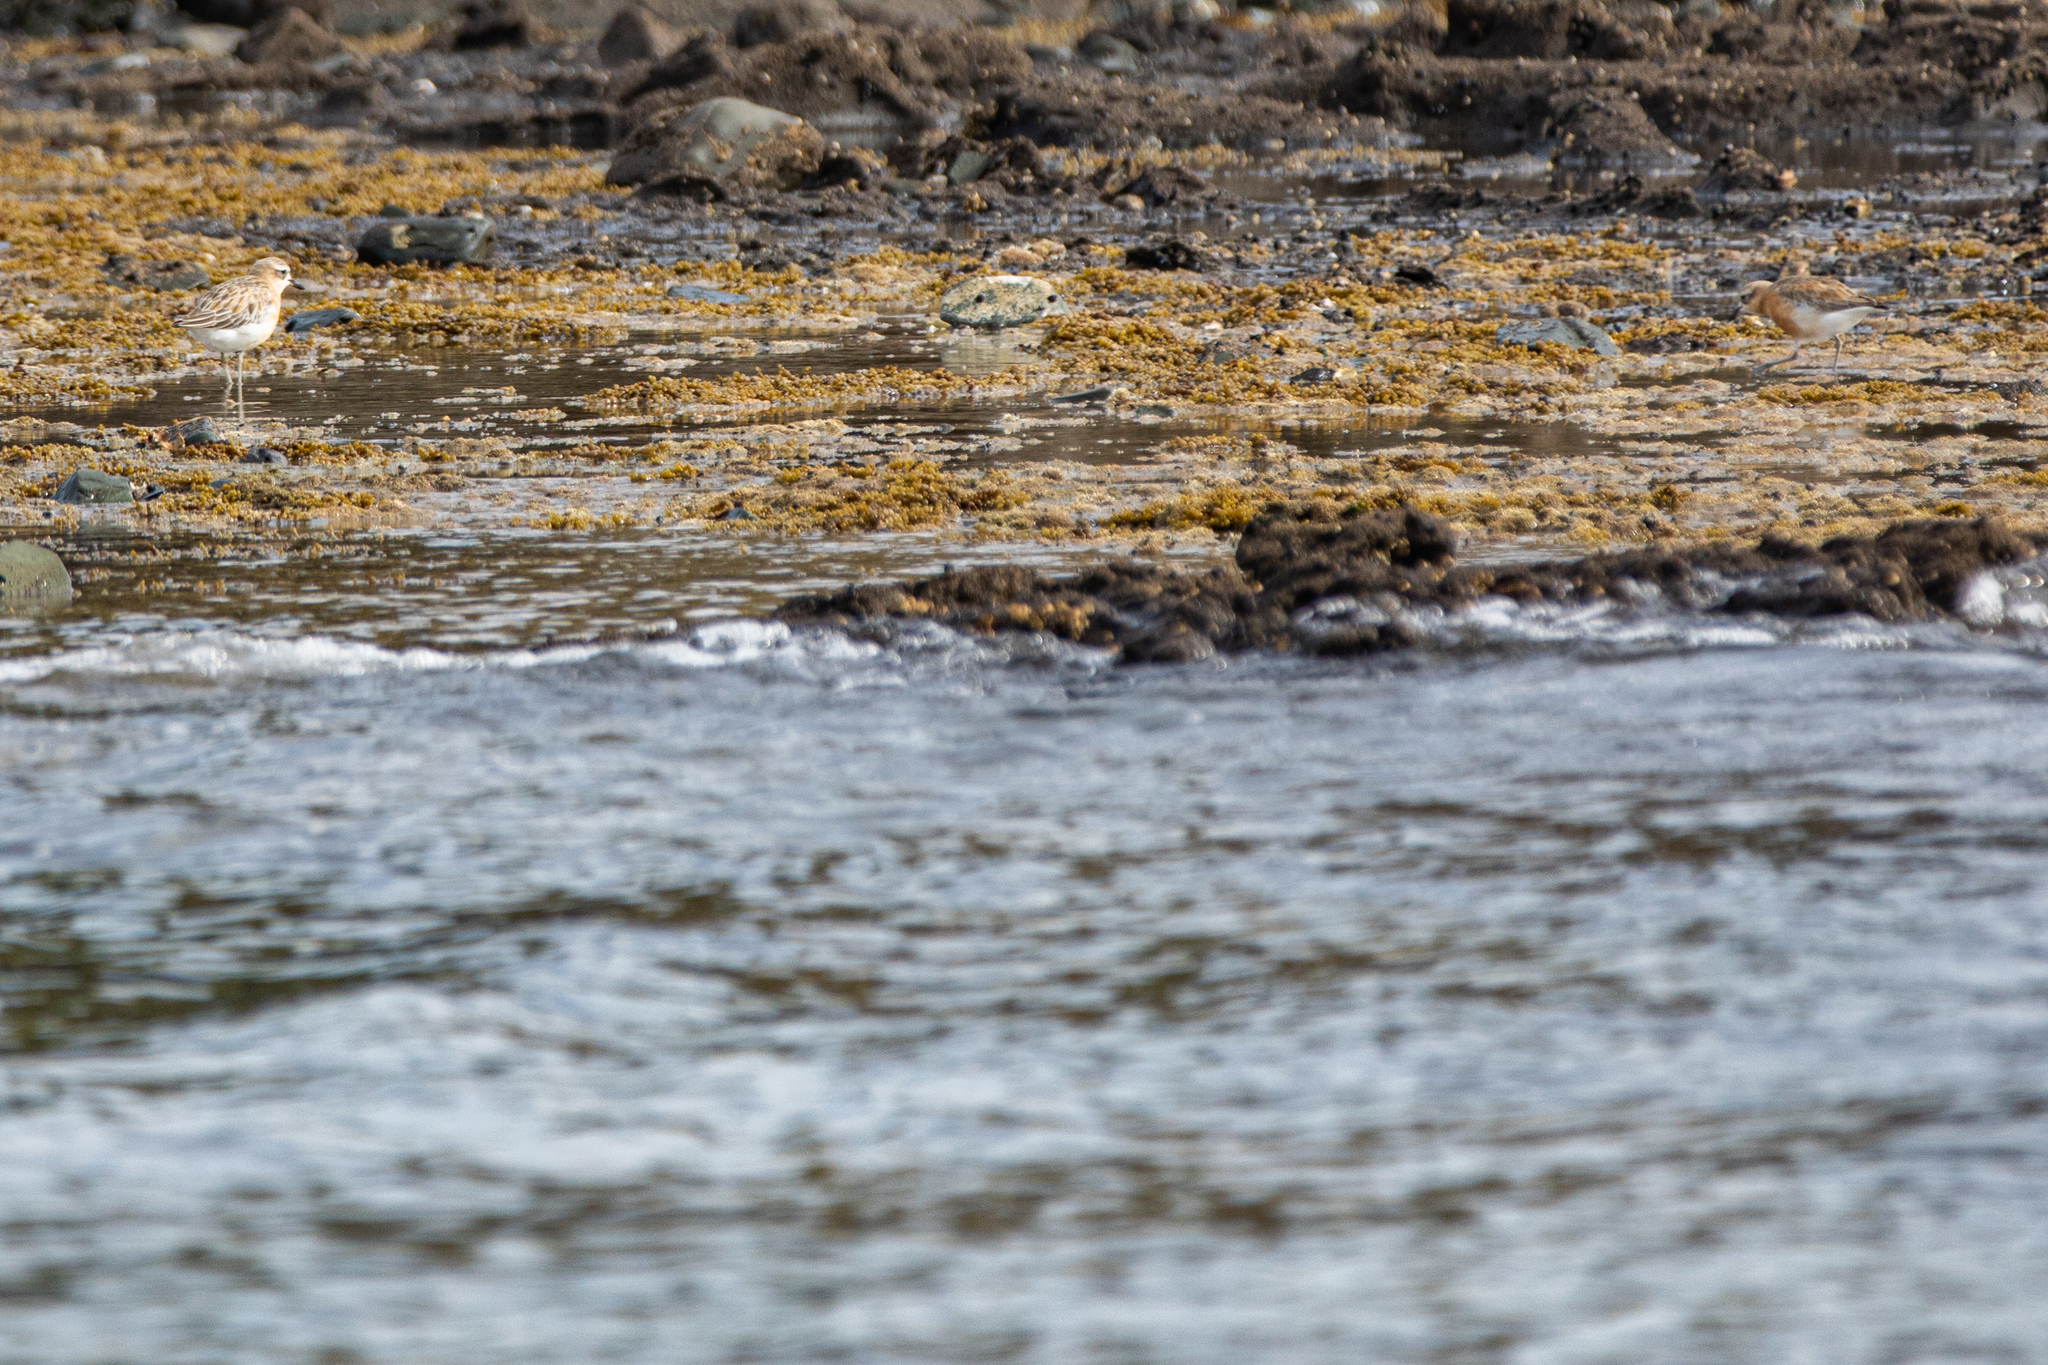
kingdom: Animalia
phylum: Chordata
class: Aves
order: Charadriiformes
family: Charadriidae
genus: Anarhynchus
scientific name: Anarhynchus
